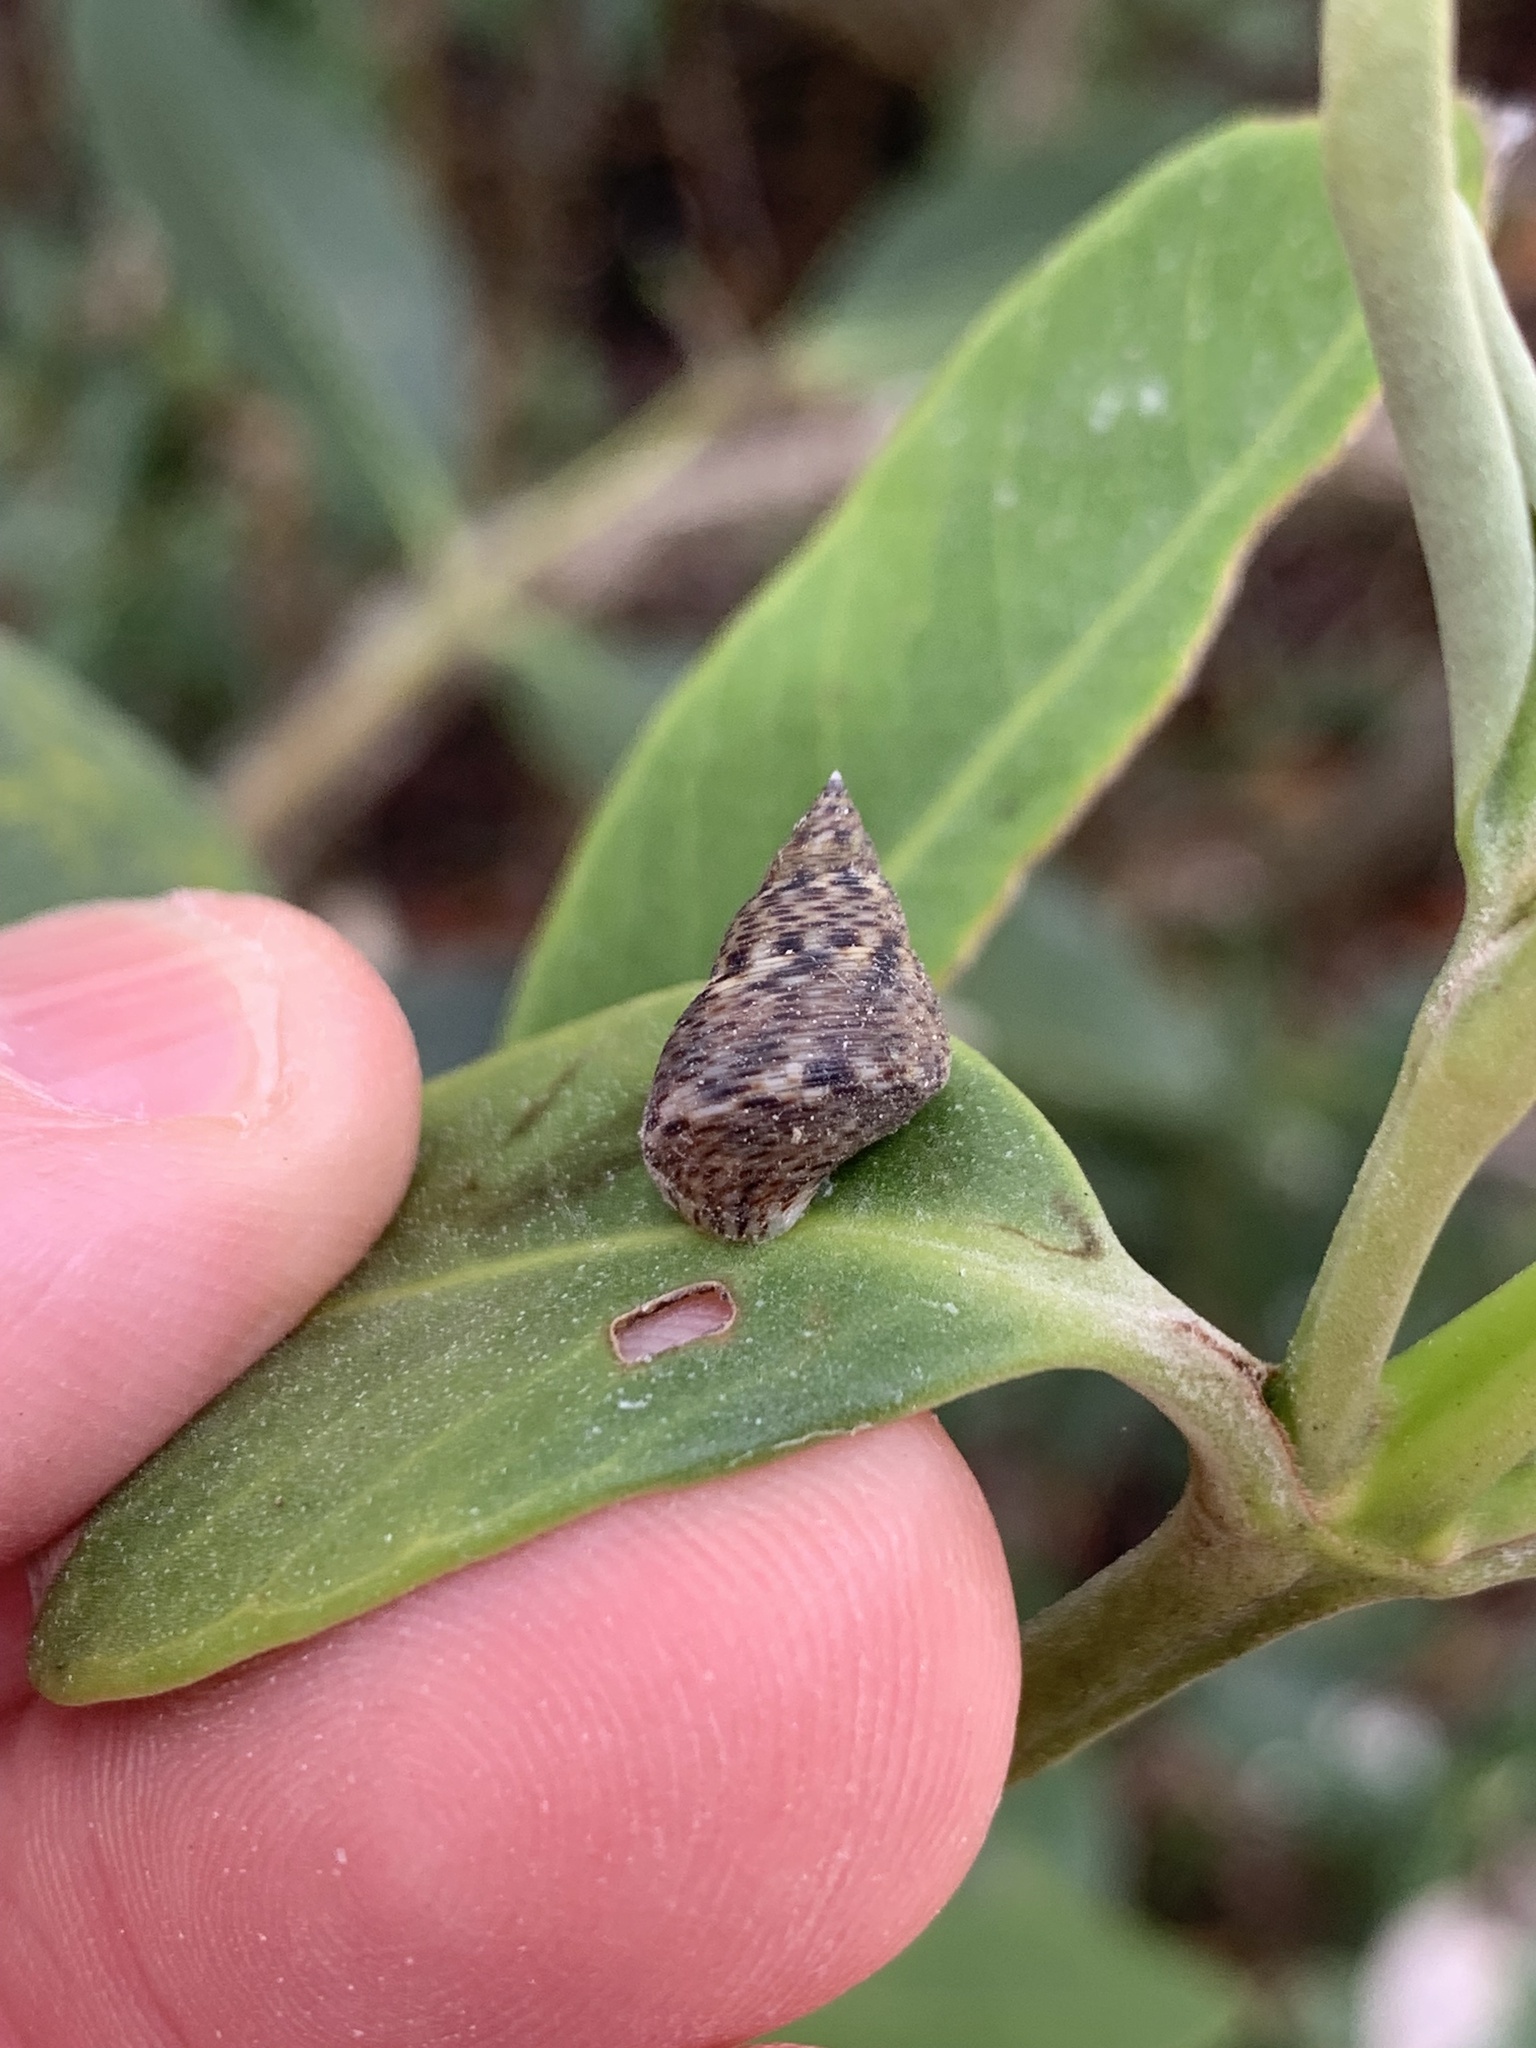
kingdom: Animalia
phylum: Mollusca
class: Gastropoda
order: Littorinimorpha
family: Littorinidae
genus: Littoraria
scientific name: Littoraria angulifera
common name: Mangrove periwinkle
